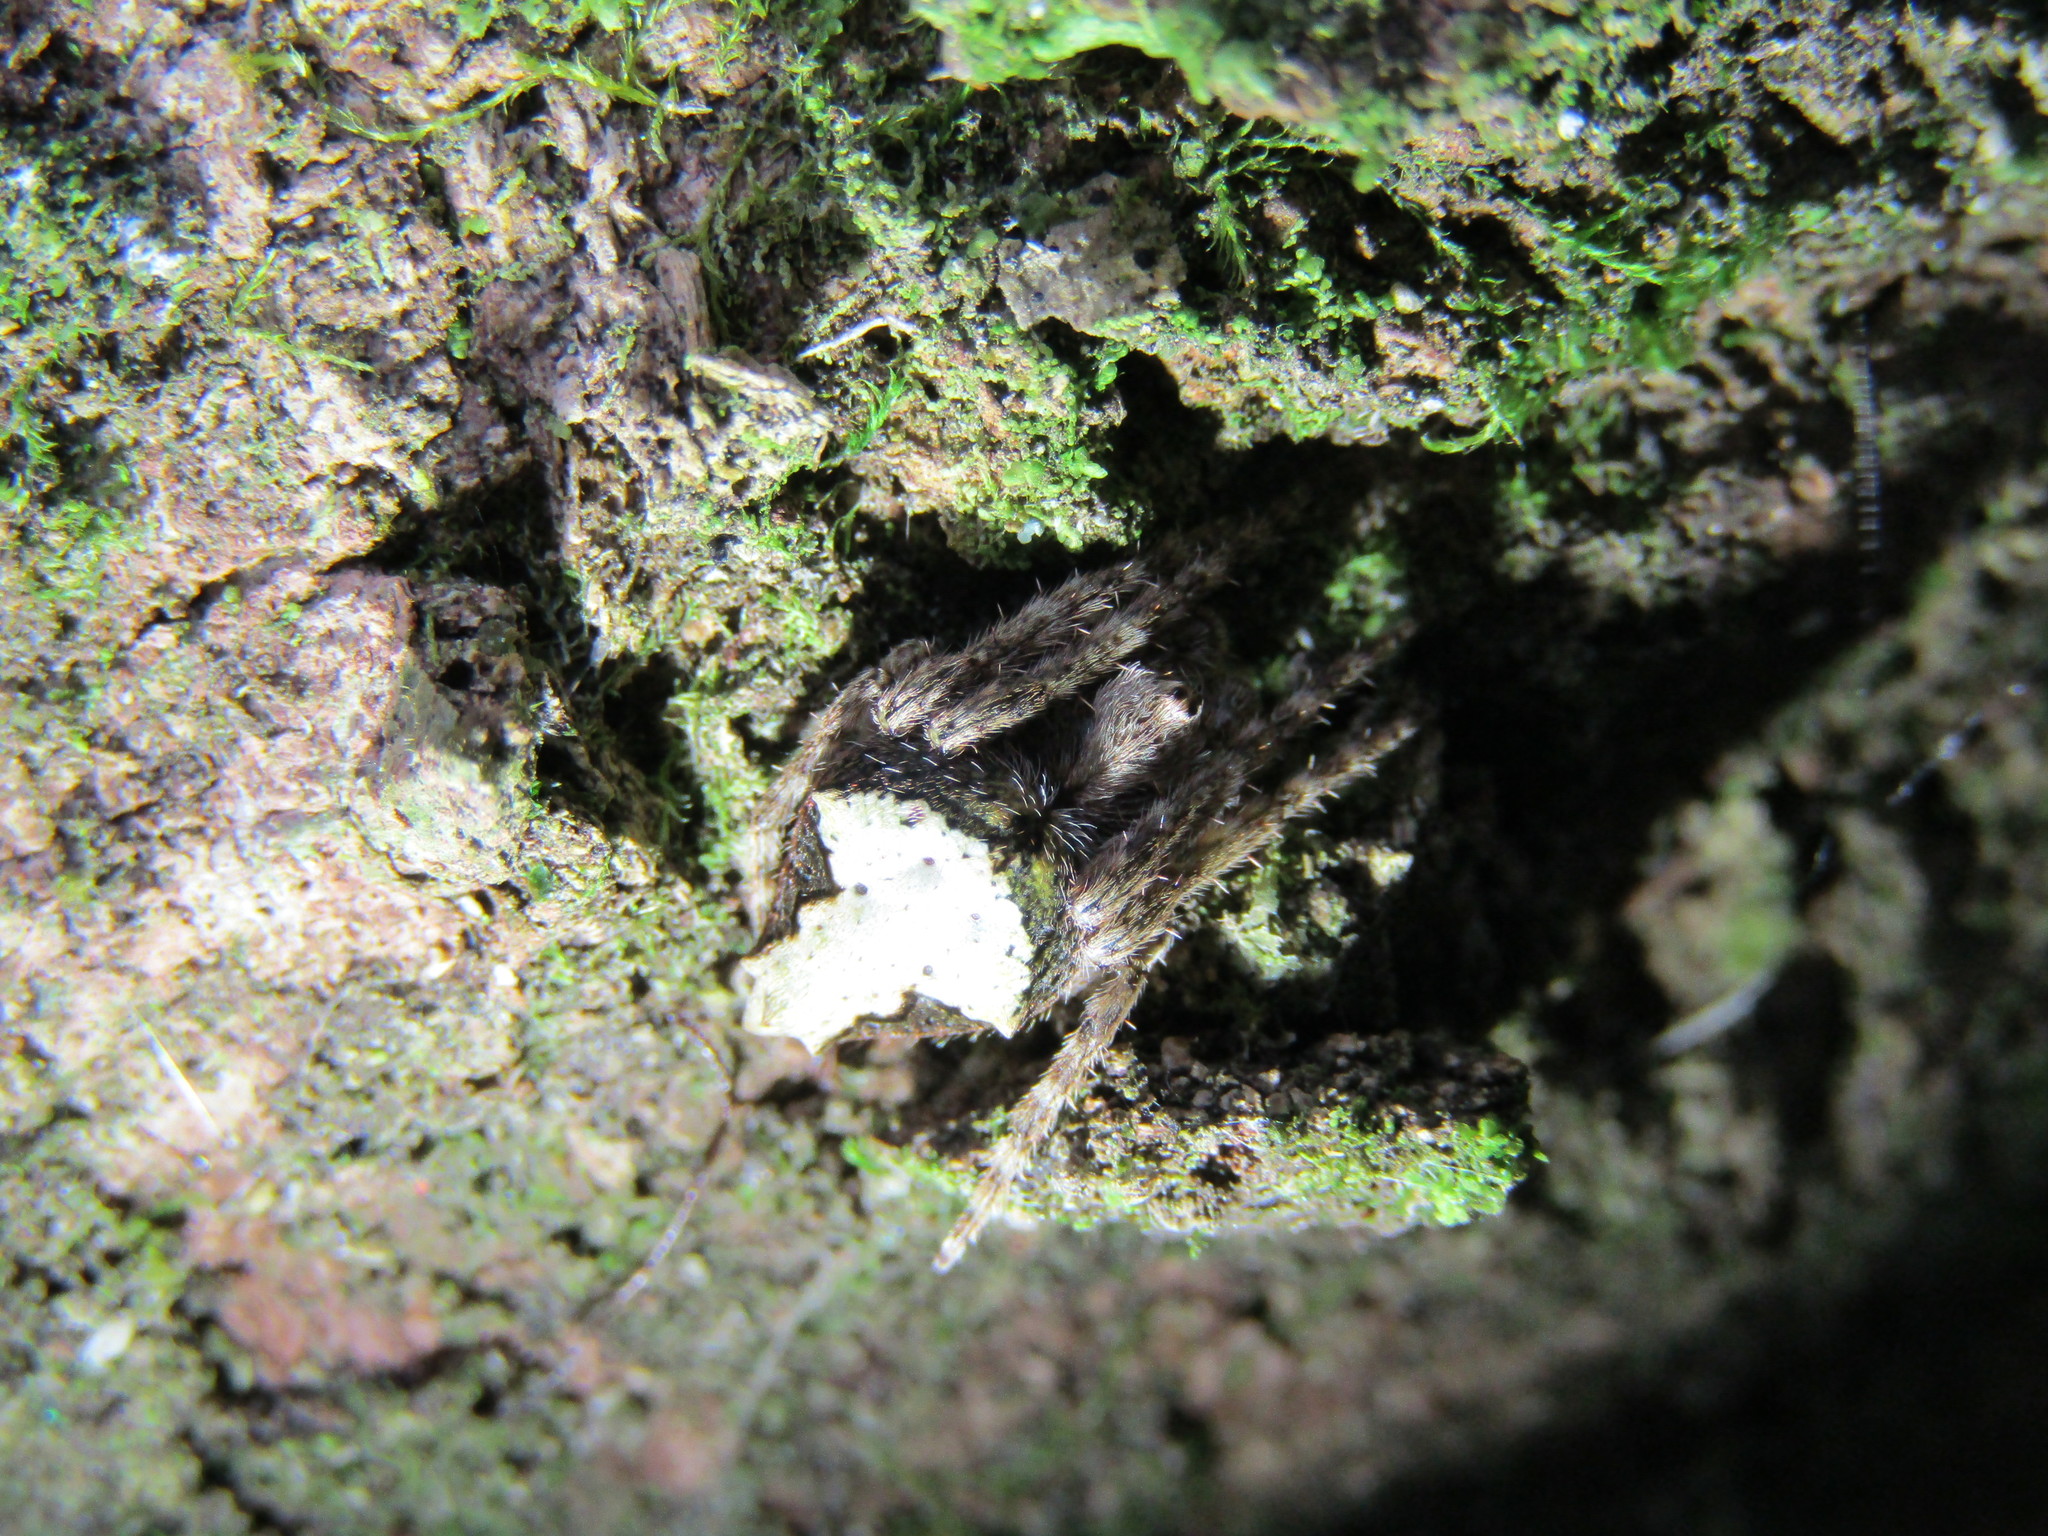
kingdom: Animalia
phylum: Arthropoda
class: Arachnida
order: Araneae
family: Araneidae
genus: Eriophora
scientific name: Eriophora pustulosa
